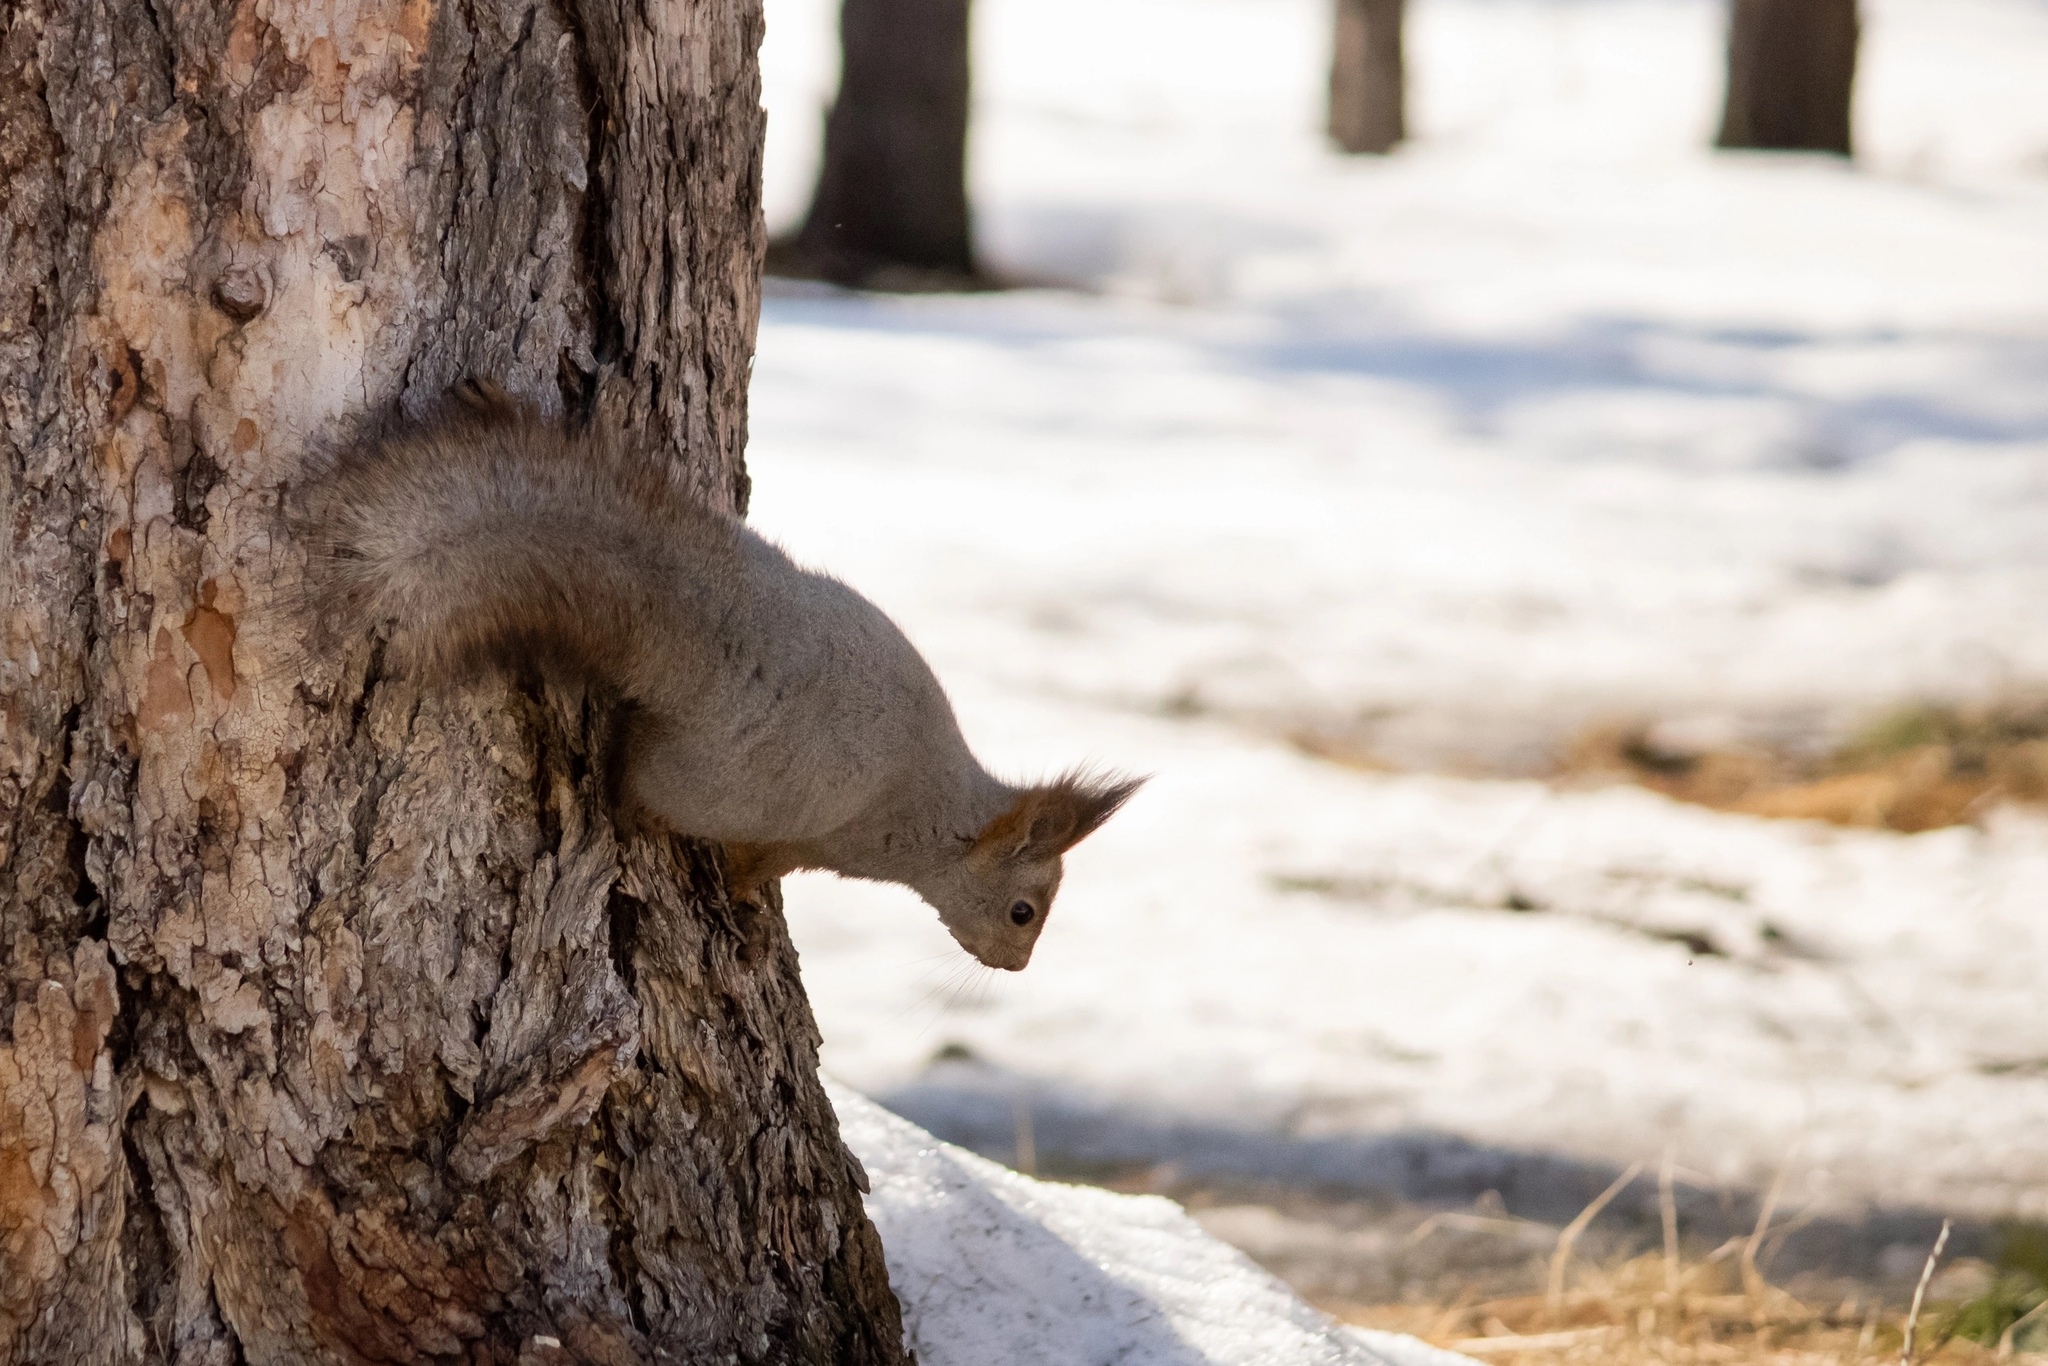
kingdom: Animalia
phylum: Chordata
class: Mammalia
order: Rodentia
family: Sciuridae
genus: Sciurus
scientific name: Sciurus vulgaris
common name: Eurasian red squirrel
